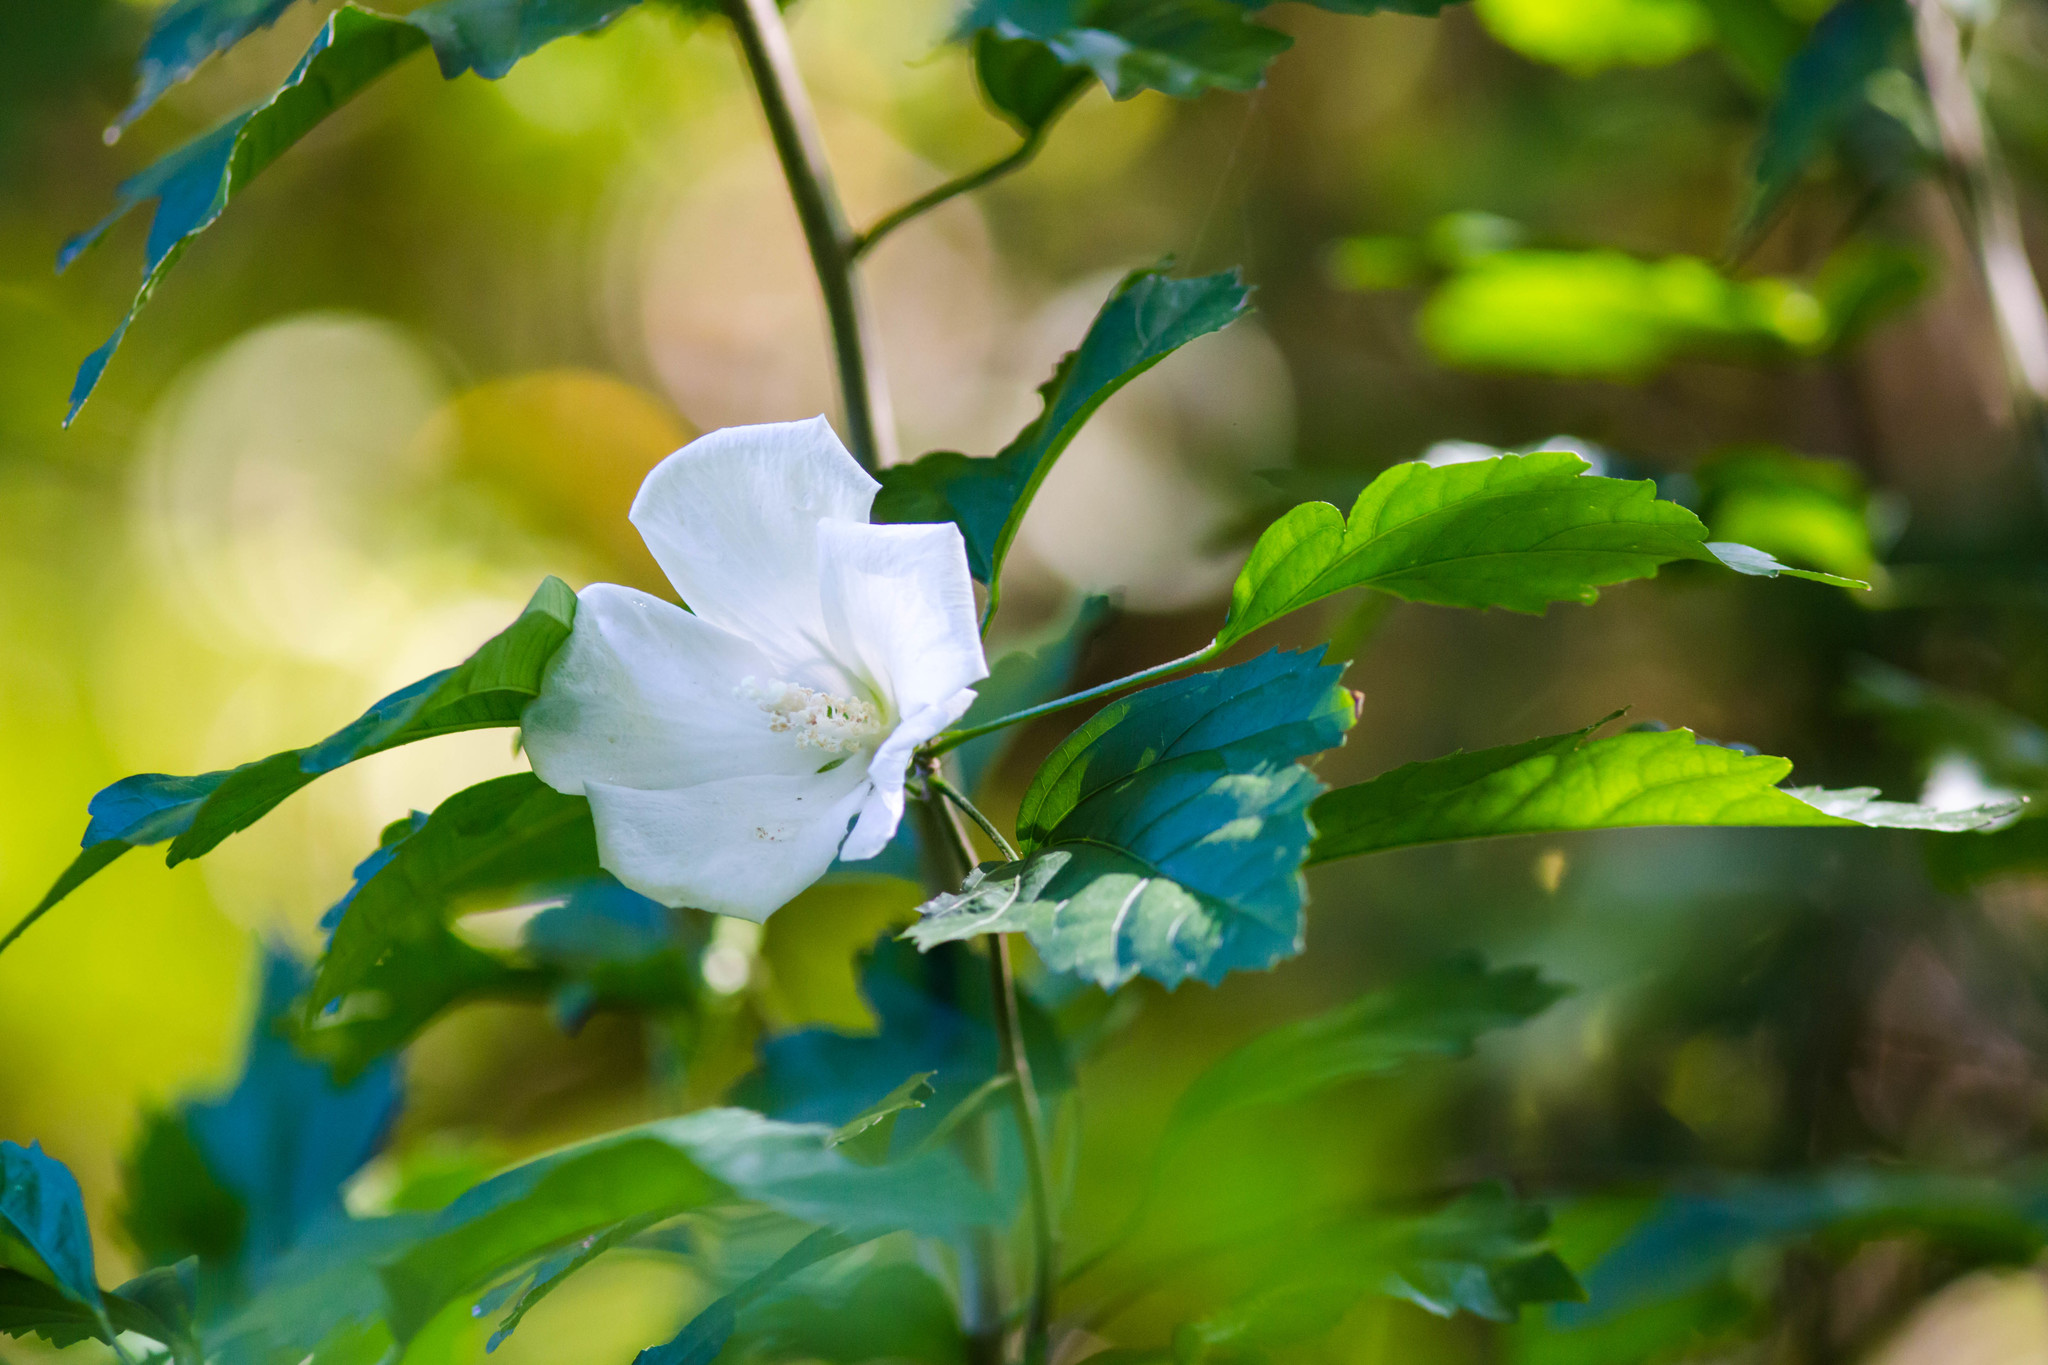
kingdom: Plantae
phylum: Tracheophyta
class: Magnoliopsida
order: Malvales
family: Malvaceae
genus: Hibiscus
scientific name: Hibiscus syriacus
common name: Syrian ketmia
